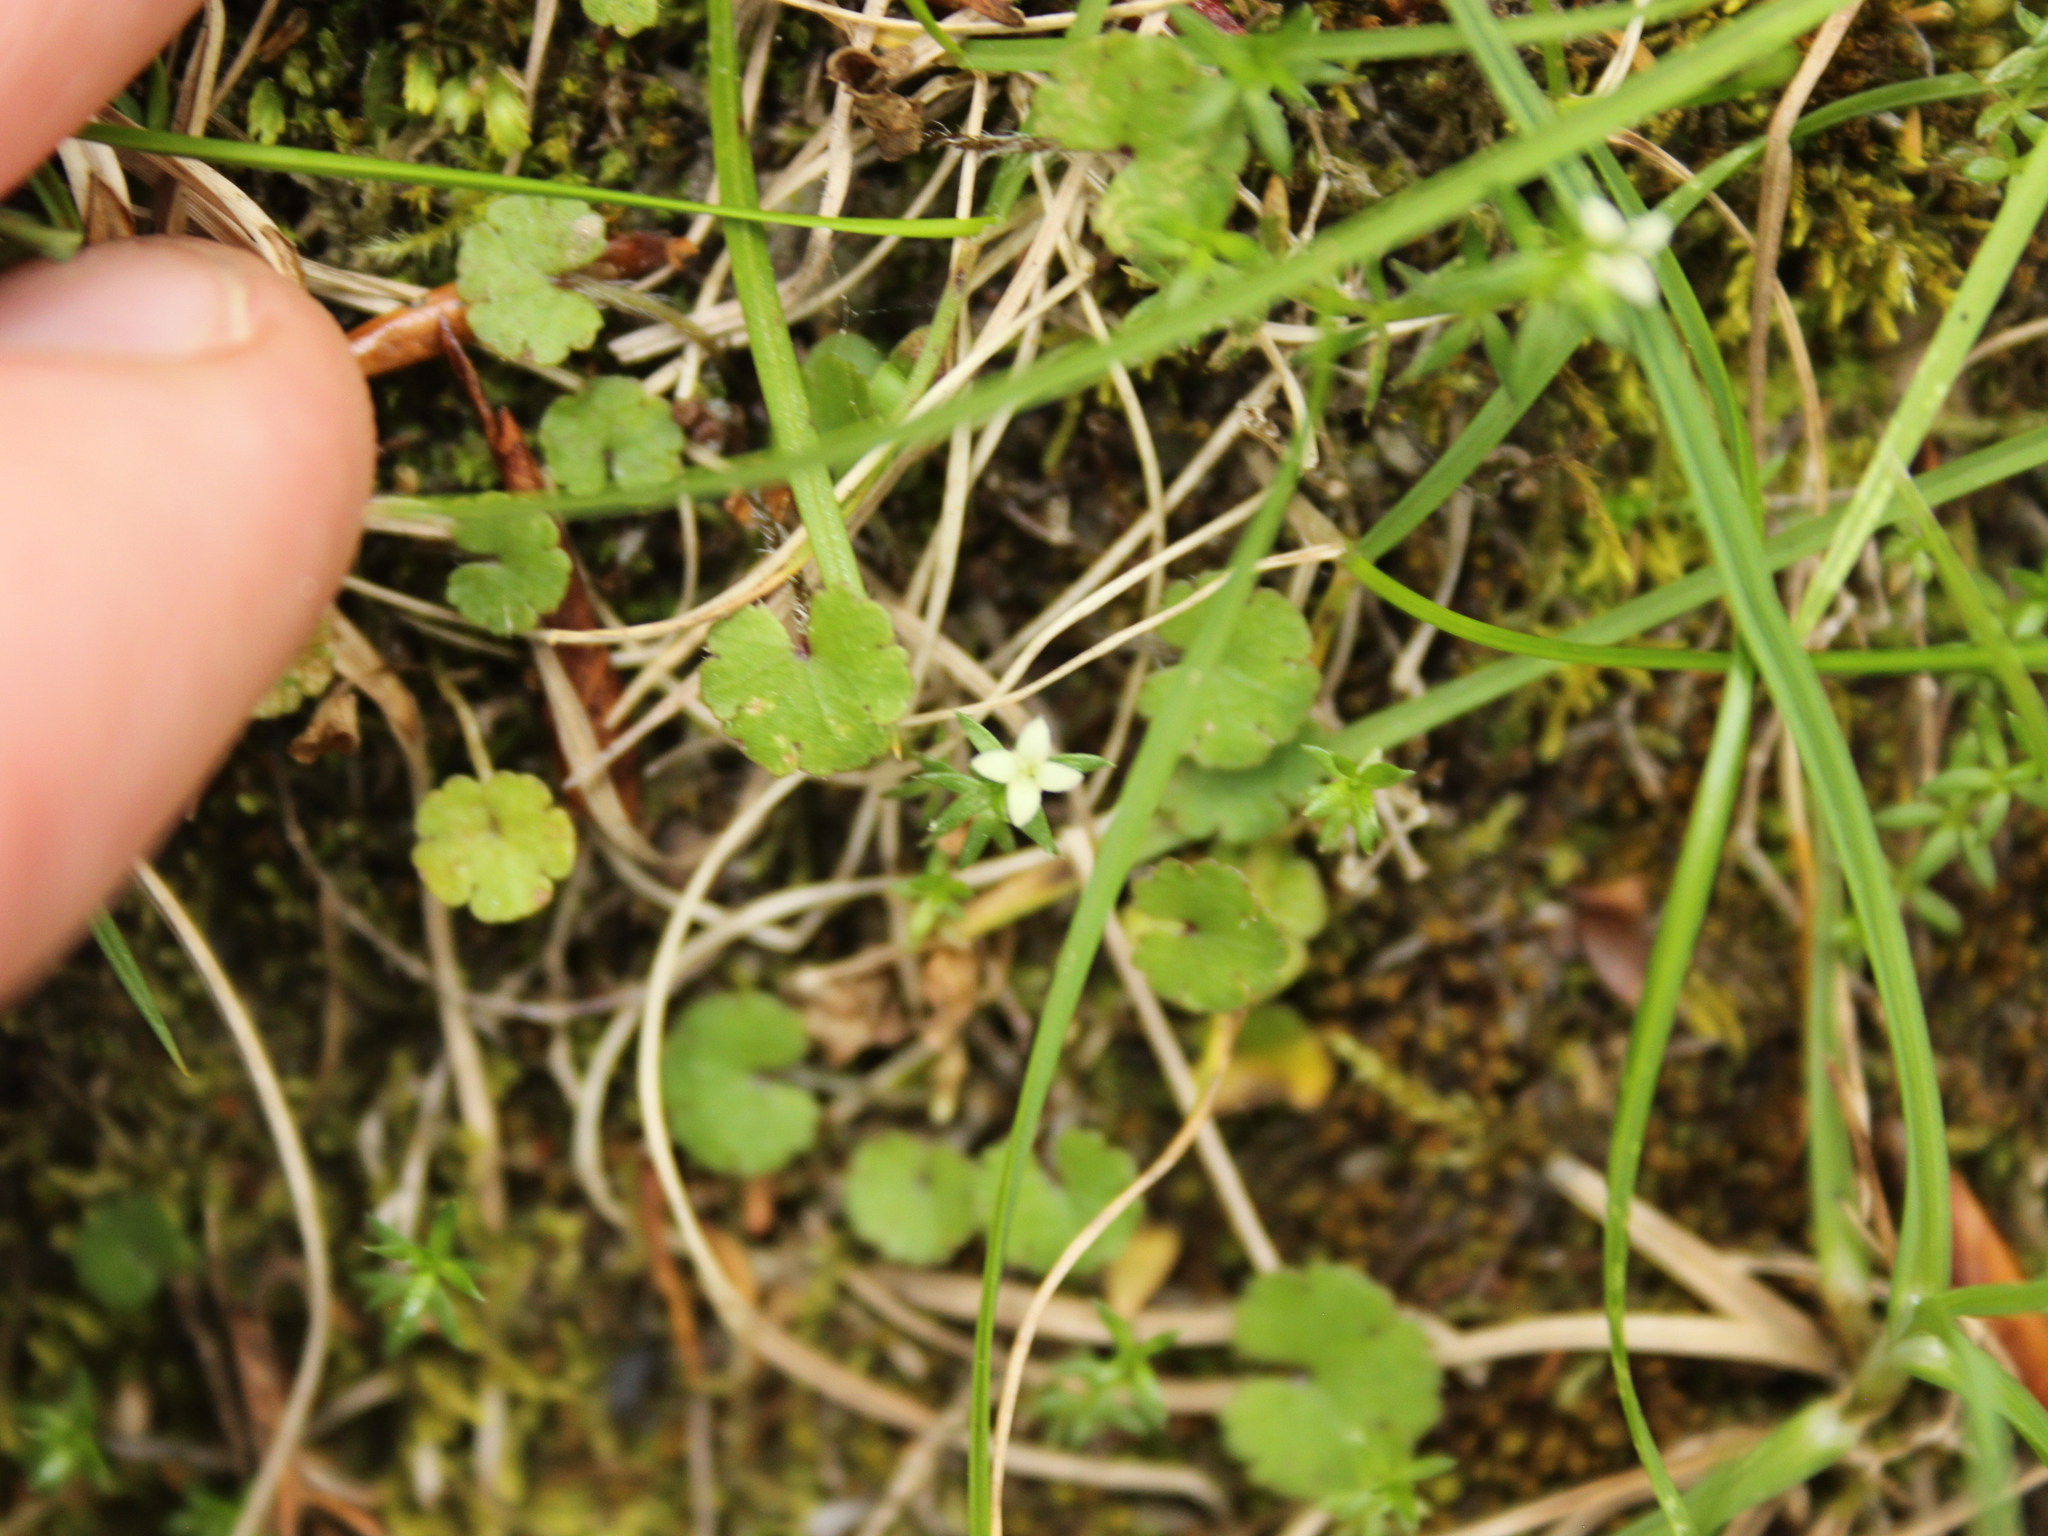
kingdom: Plantae
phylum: Tracheophyta
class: Magnoliopsida
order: Gentianales
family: Rubiaceae
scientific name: Rubiaceae
